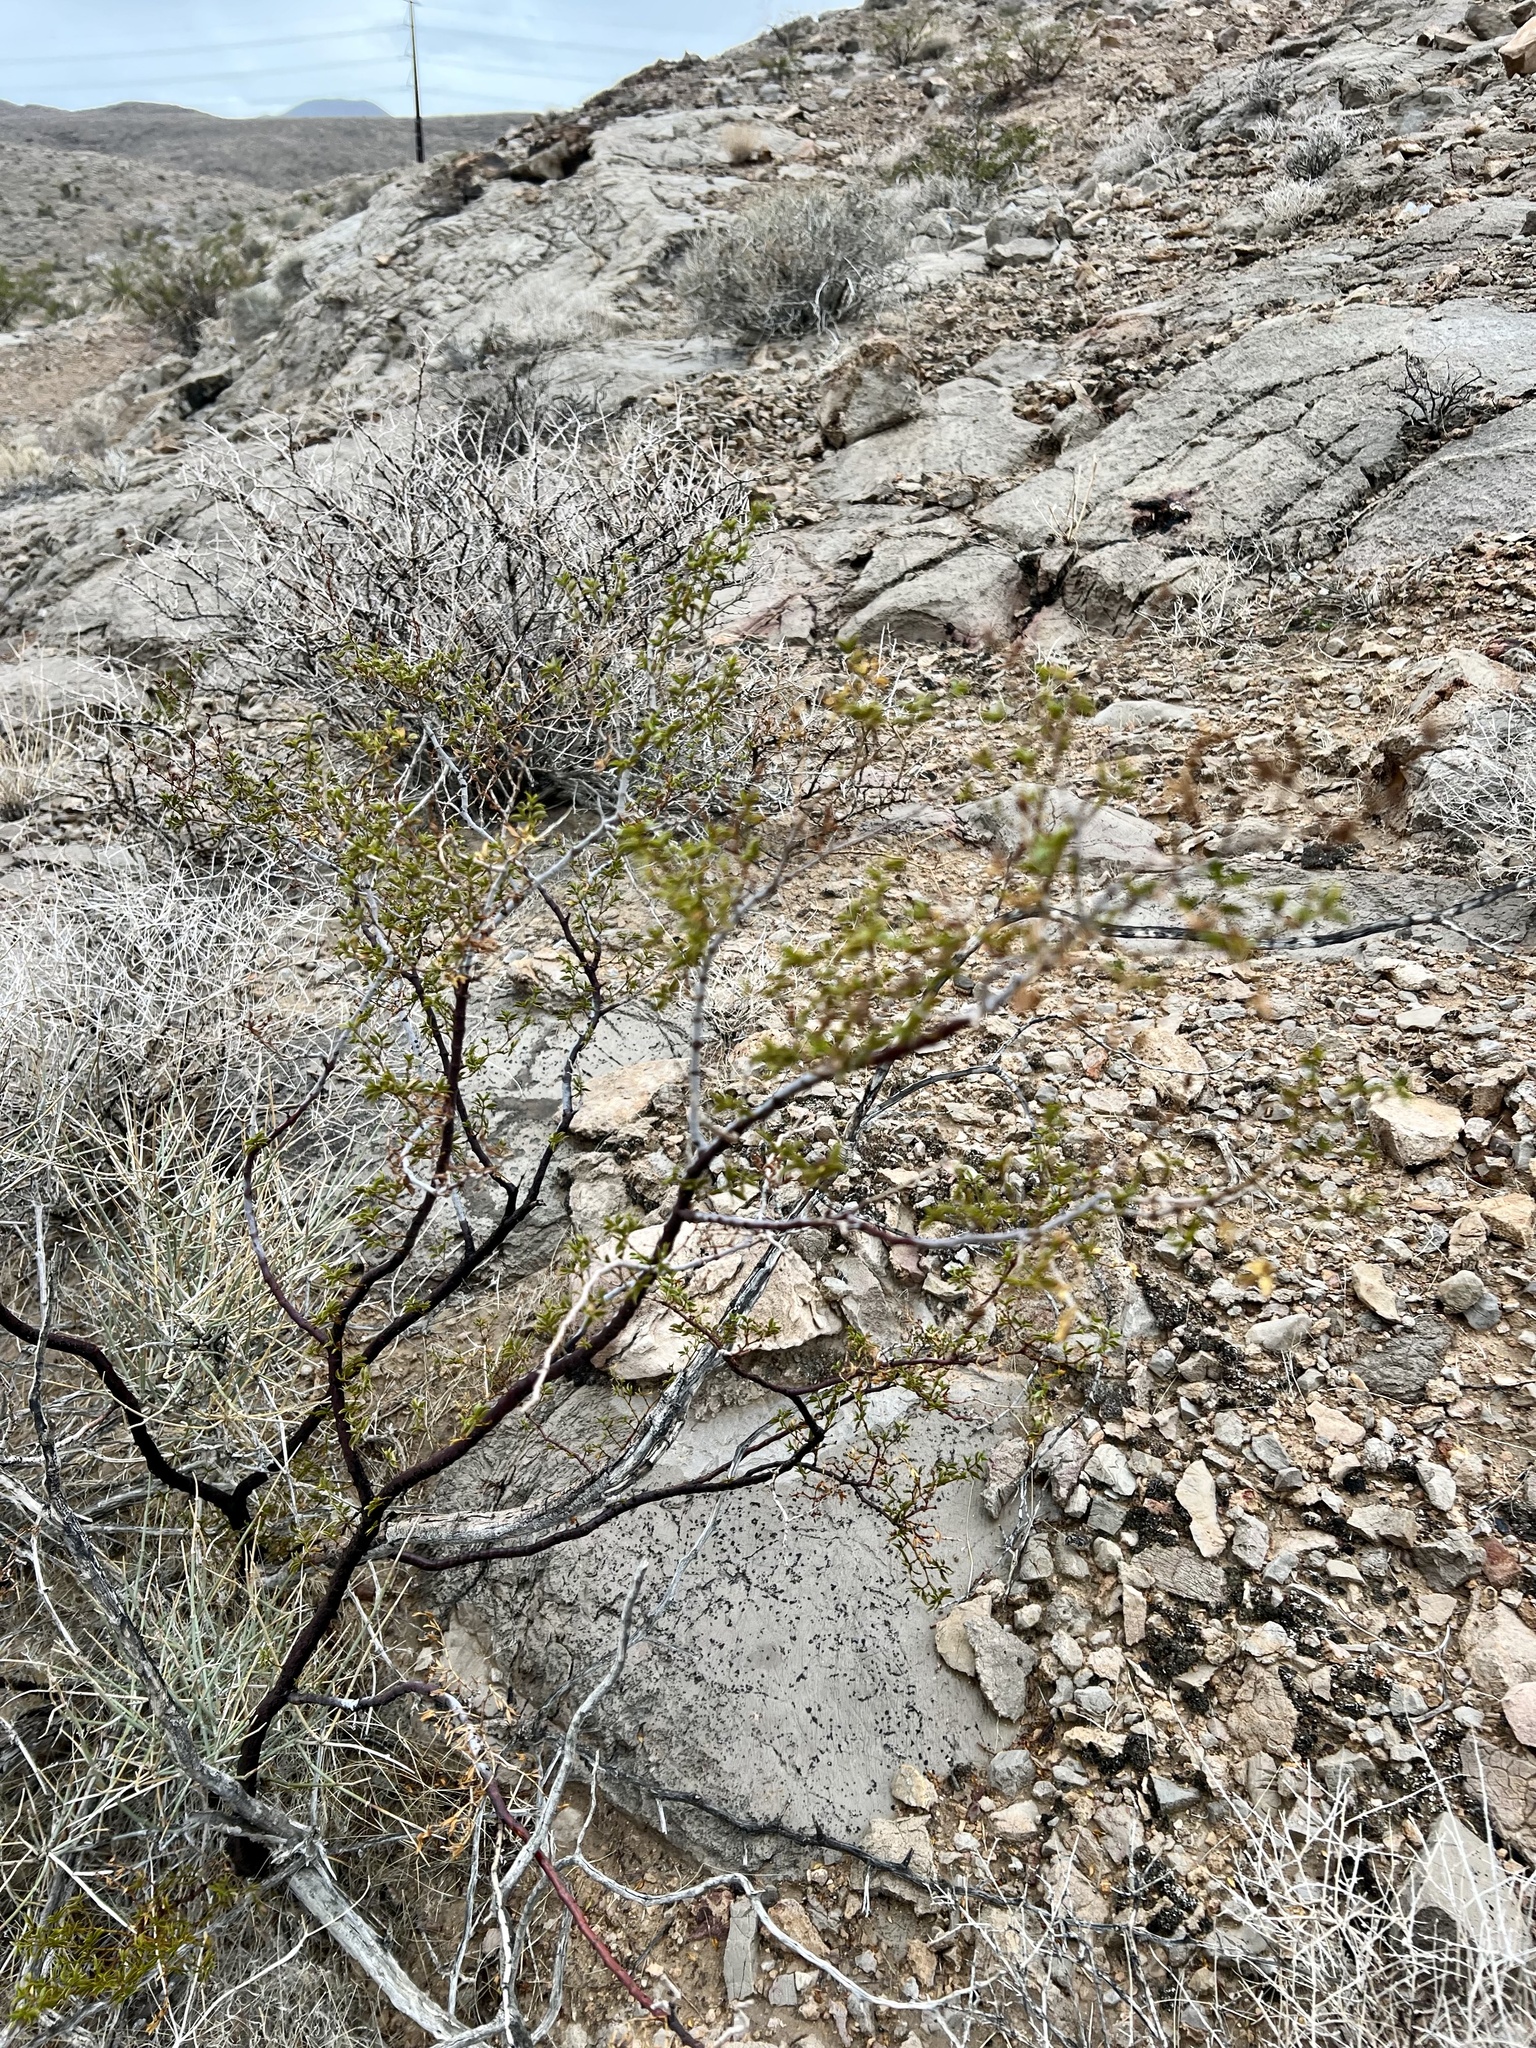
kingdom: Plantae
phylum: Tracheophyta
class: Magnoliopsida
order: Zygophyllales
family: Zygophyllaceae
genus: Larrea
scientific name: Larrea tridentata
